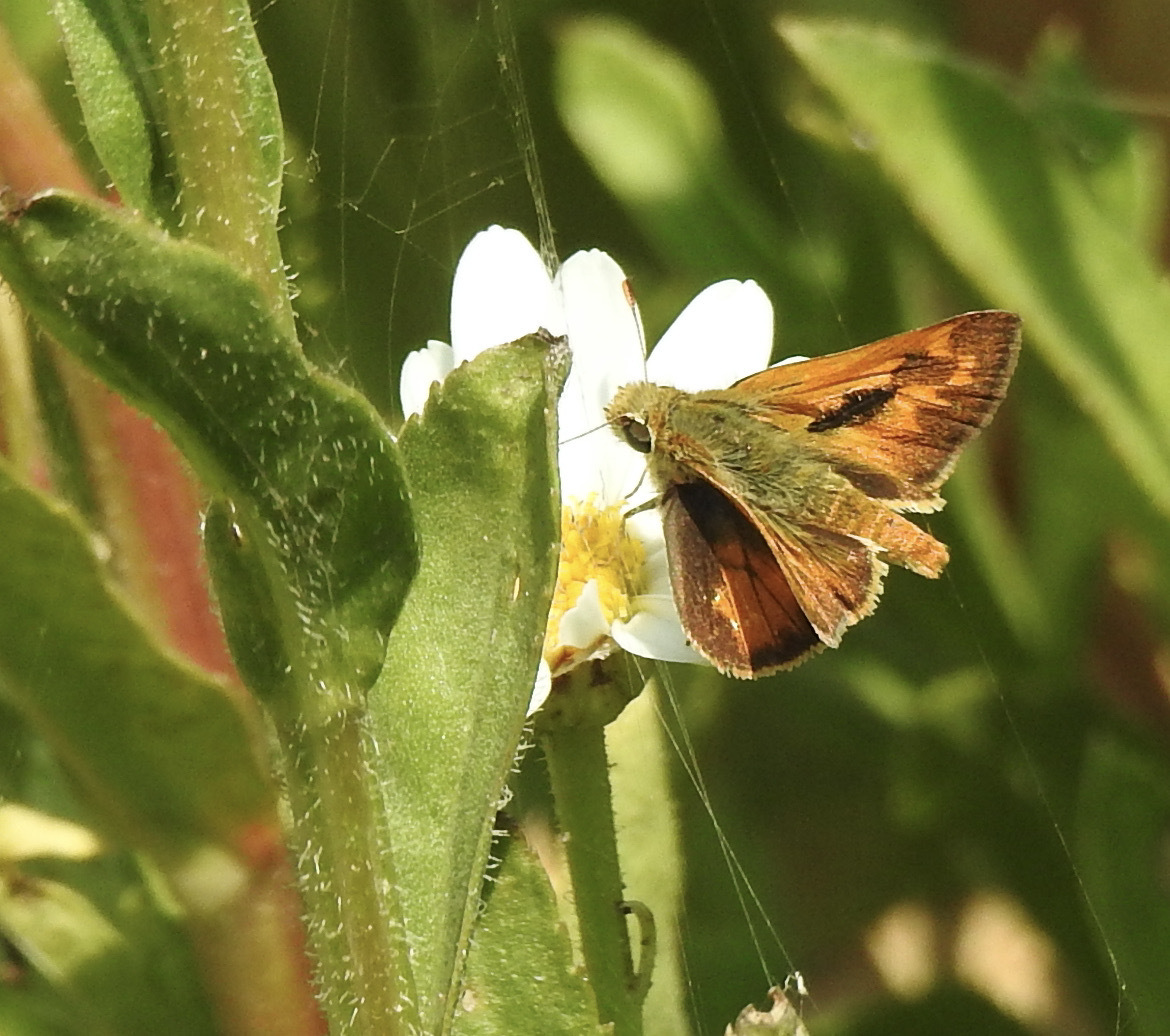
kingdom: Animalia
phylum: Arthropoda
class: Insecta
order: Lepidoptera
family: Hesperiidae
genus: Ochlodes
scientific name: Ochlodes sylvanoides
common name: Woodland skipper
